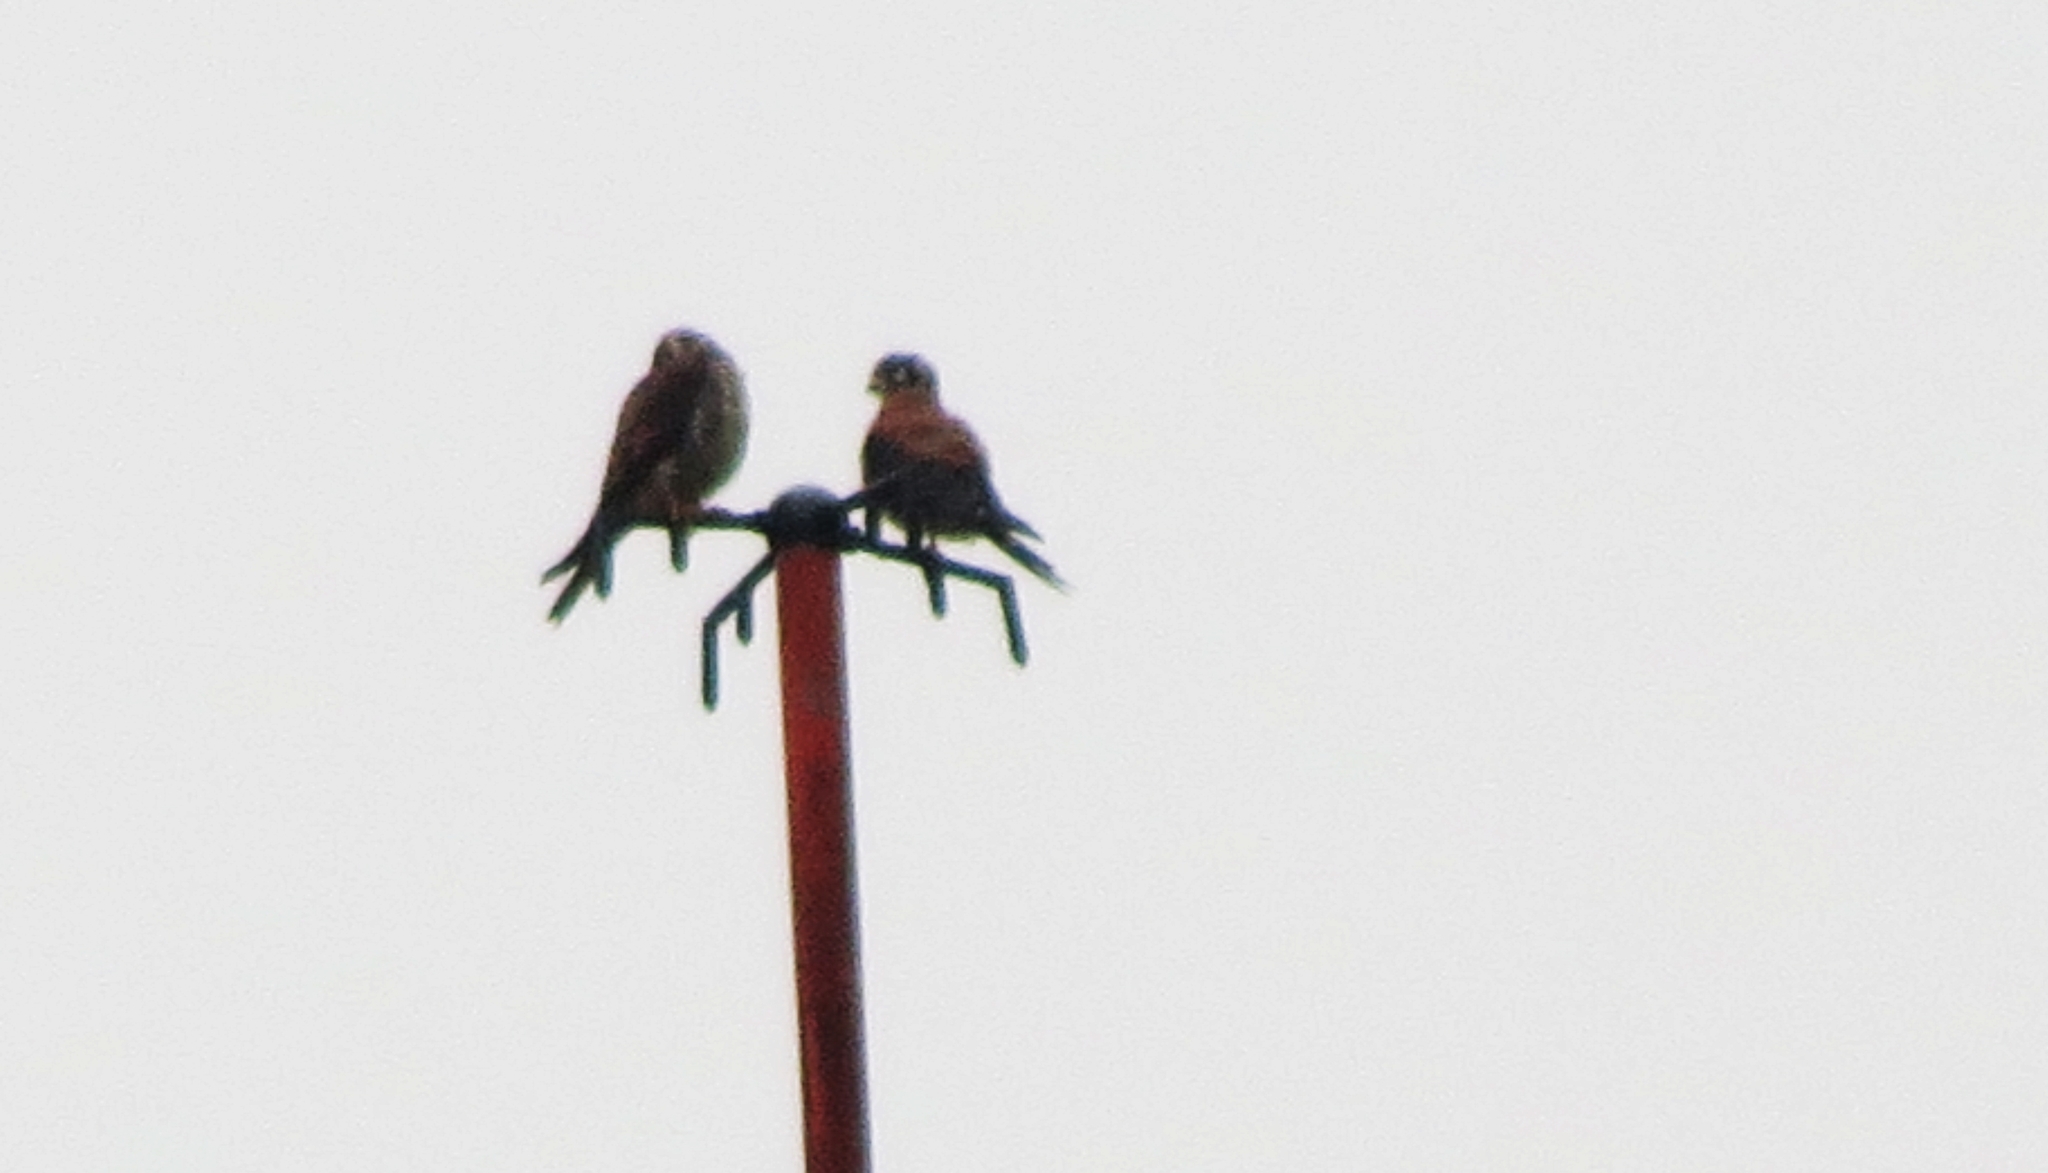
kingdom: Animalia
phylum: Chordata
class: Aves
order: Falconiformes
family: Falconidae
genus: Falco
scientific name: Falco sparverius
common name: American kestrel
